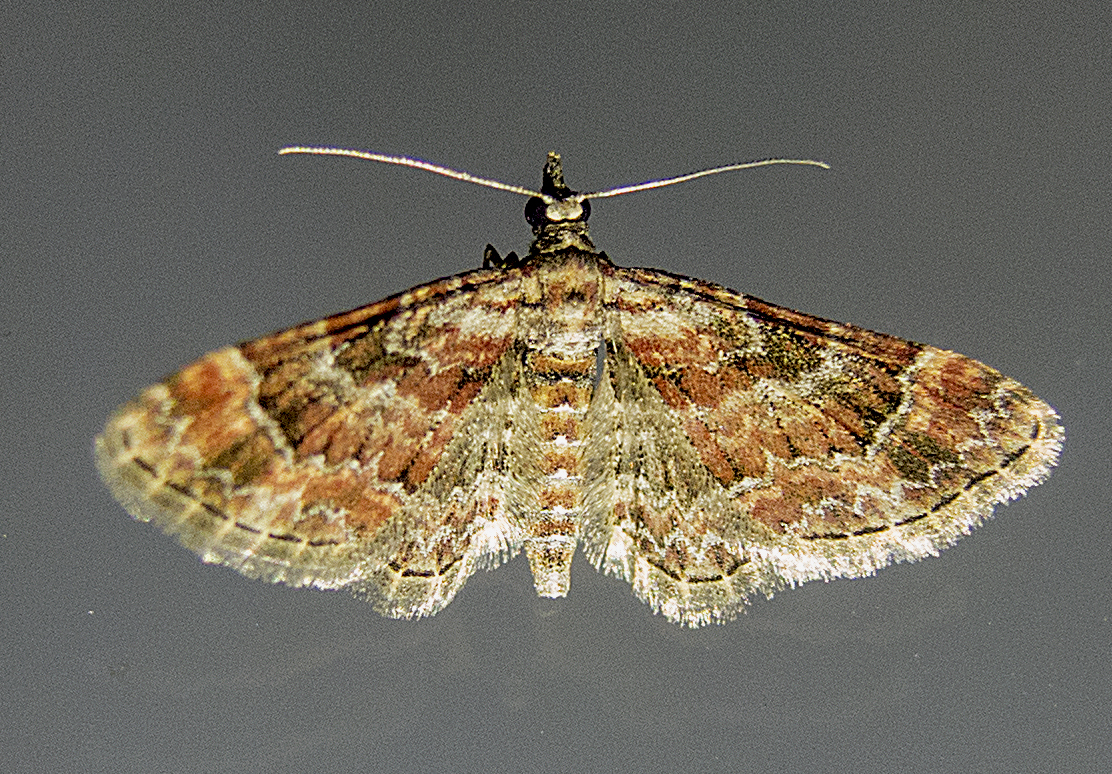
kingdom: Animalia
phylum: Arthropoda
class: Insecta
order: Lepidoptera
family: Geometridae
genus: Gymnoscelis
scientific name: Gymnoscelis rufifasciata
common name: Double-striped pug
